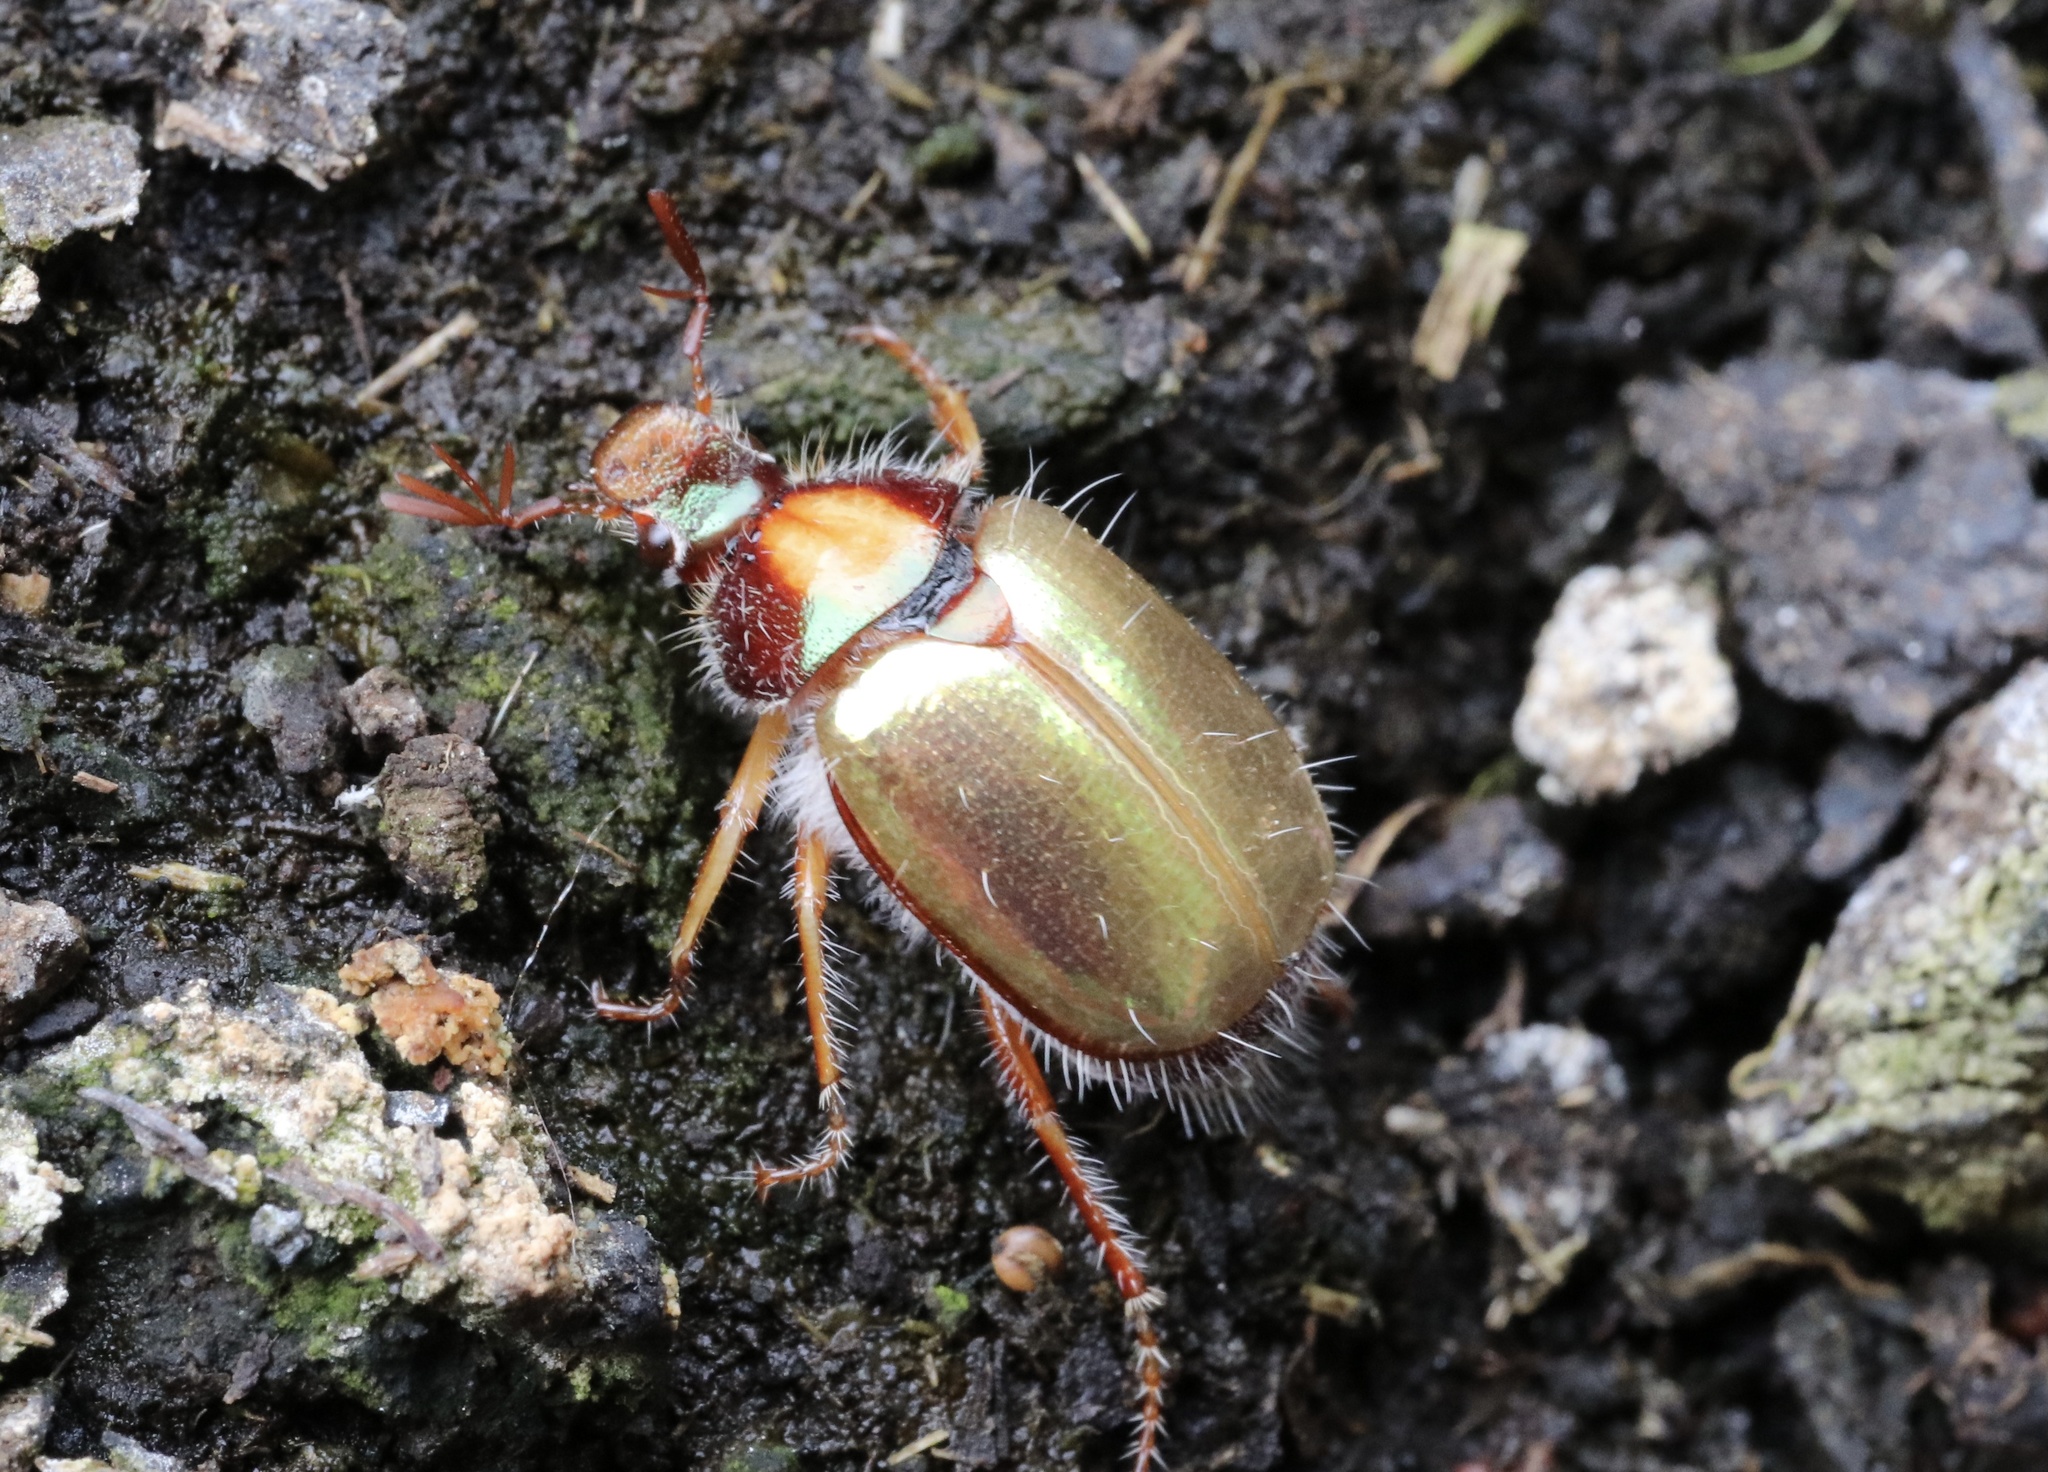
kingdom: Animalia
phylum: Arthropoda
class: Insecta
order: Coleoptera
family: Scarabaeidae
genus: Phytholaema
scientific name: Phytholaema mutabilis
